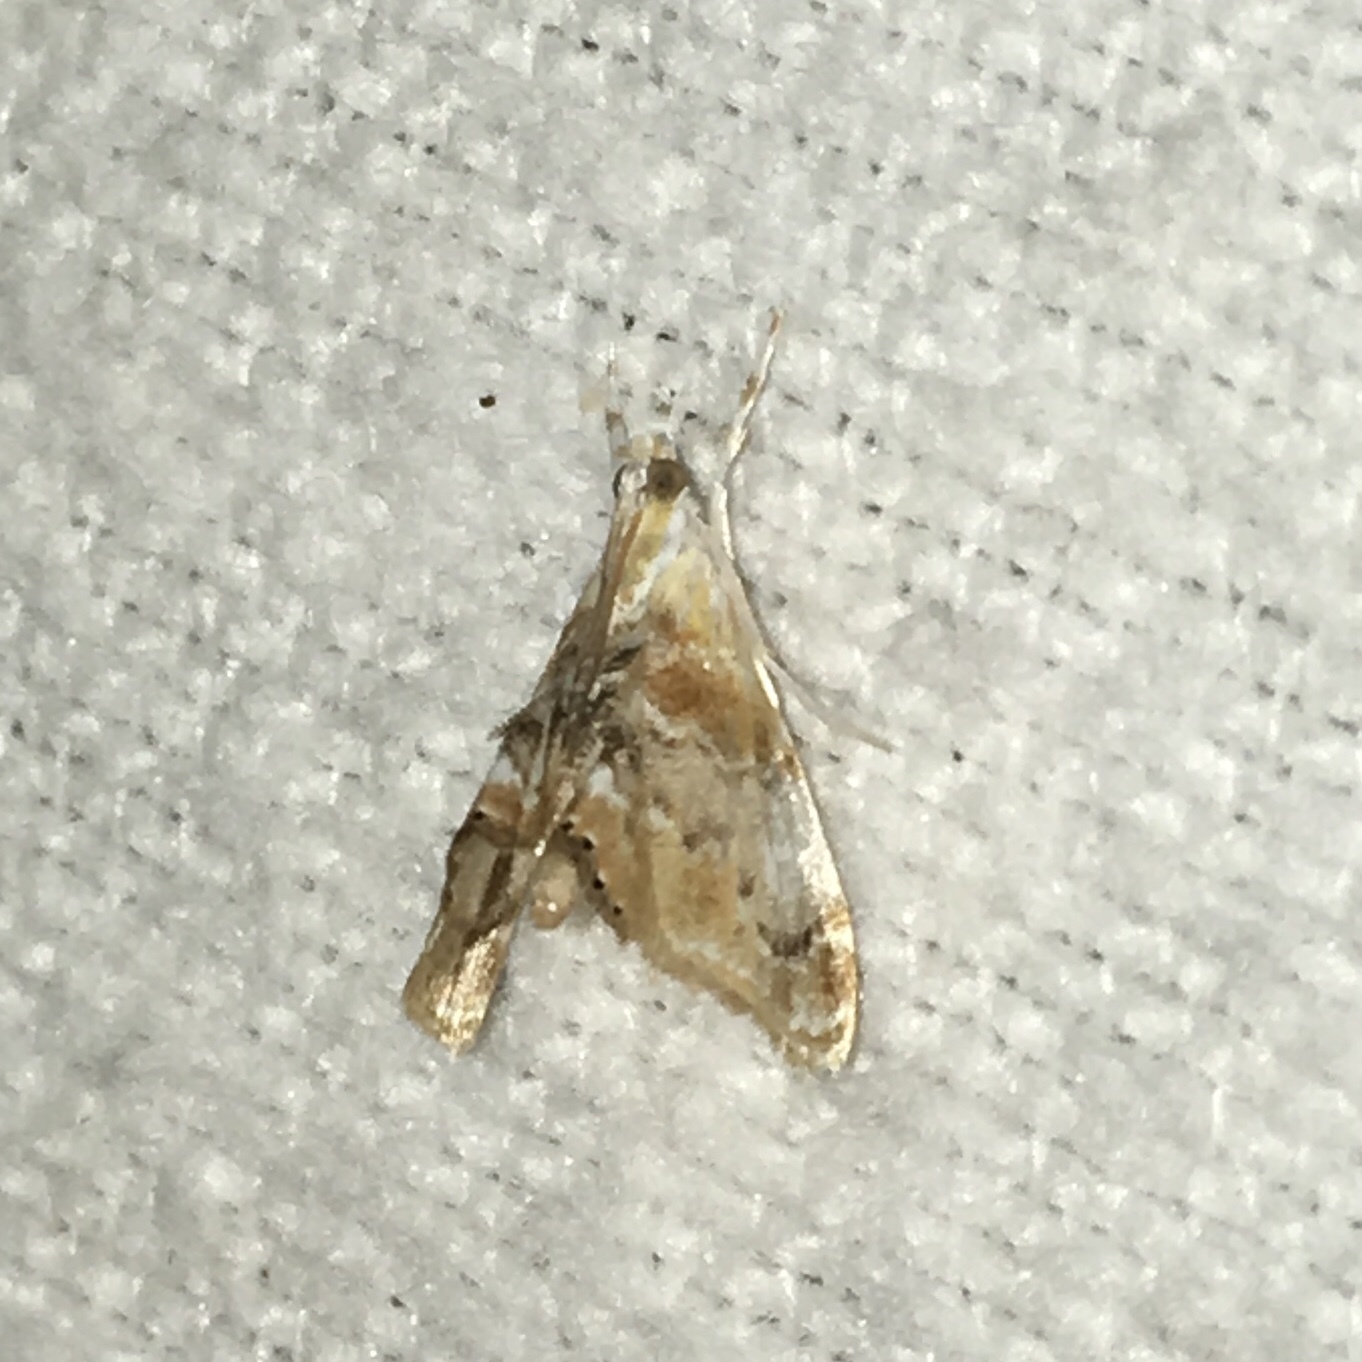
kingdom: Animalia
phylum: Arthropoda
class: Insecta
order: Lepidoptera
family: Crambidae
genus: Dicymolomia
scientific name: Dicymolomia julianalis
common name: Julia's dicymolomia moth
